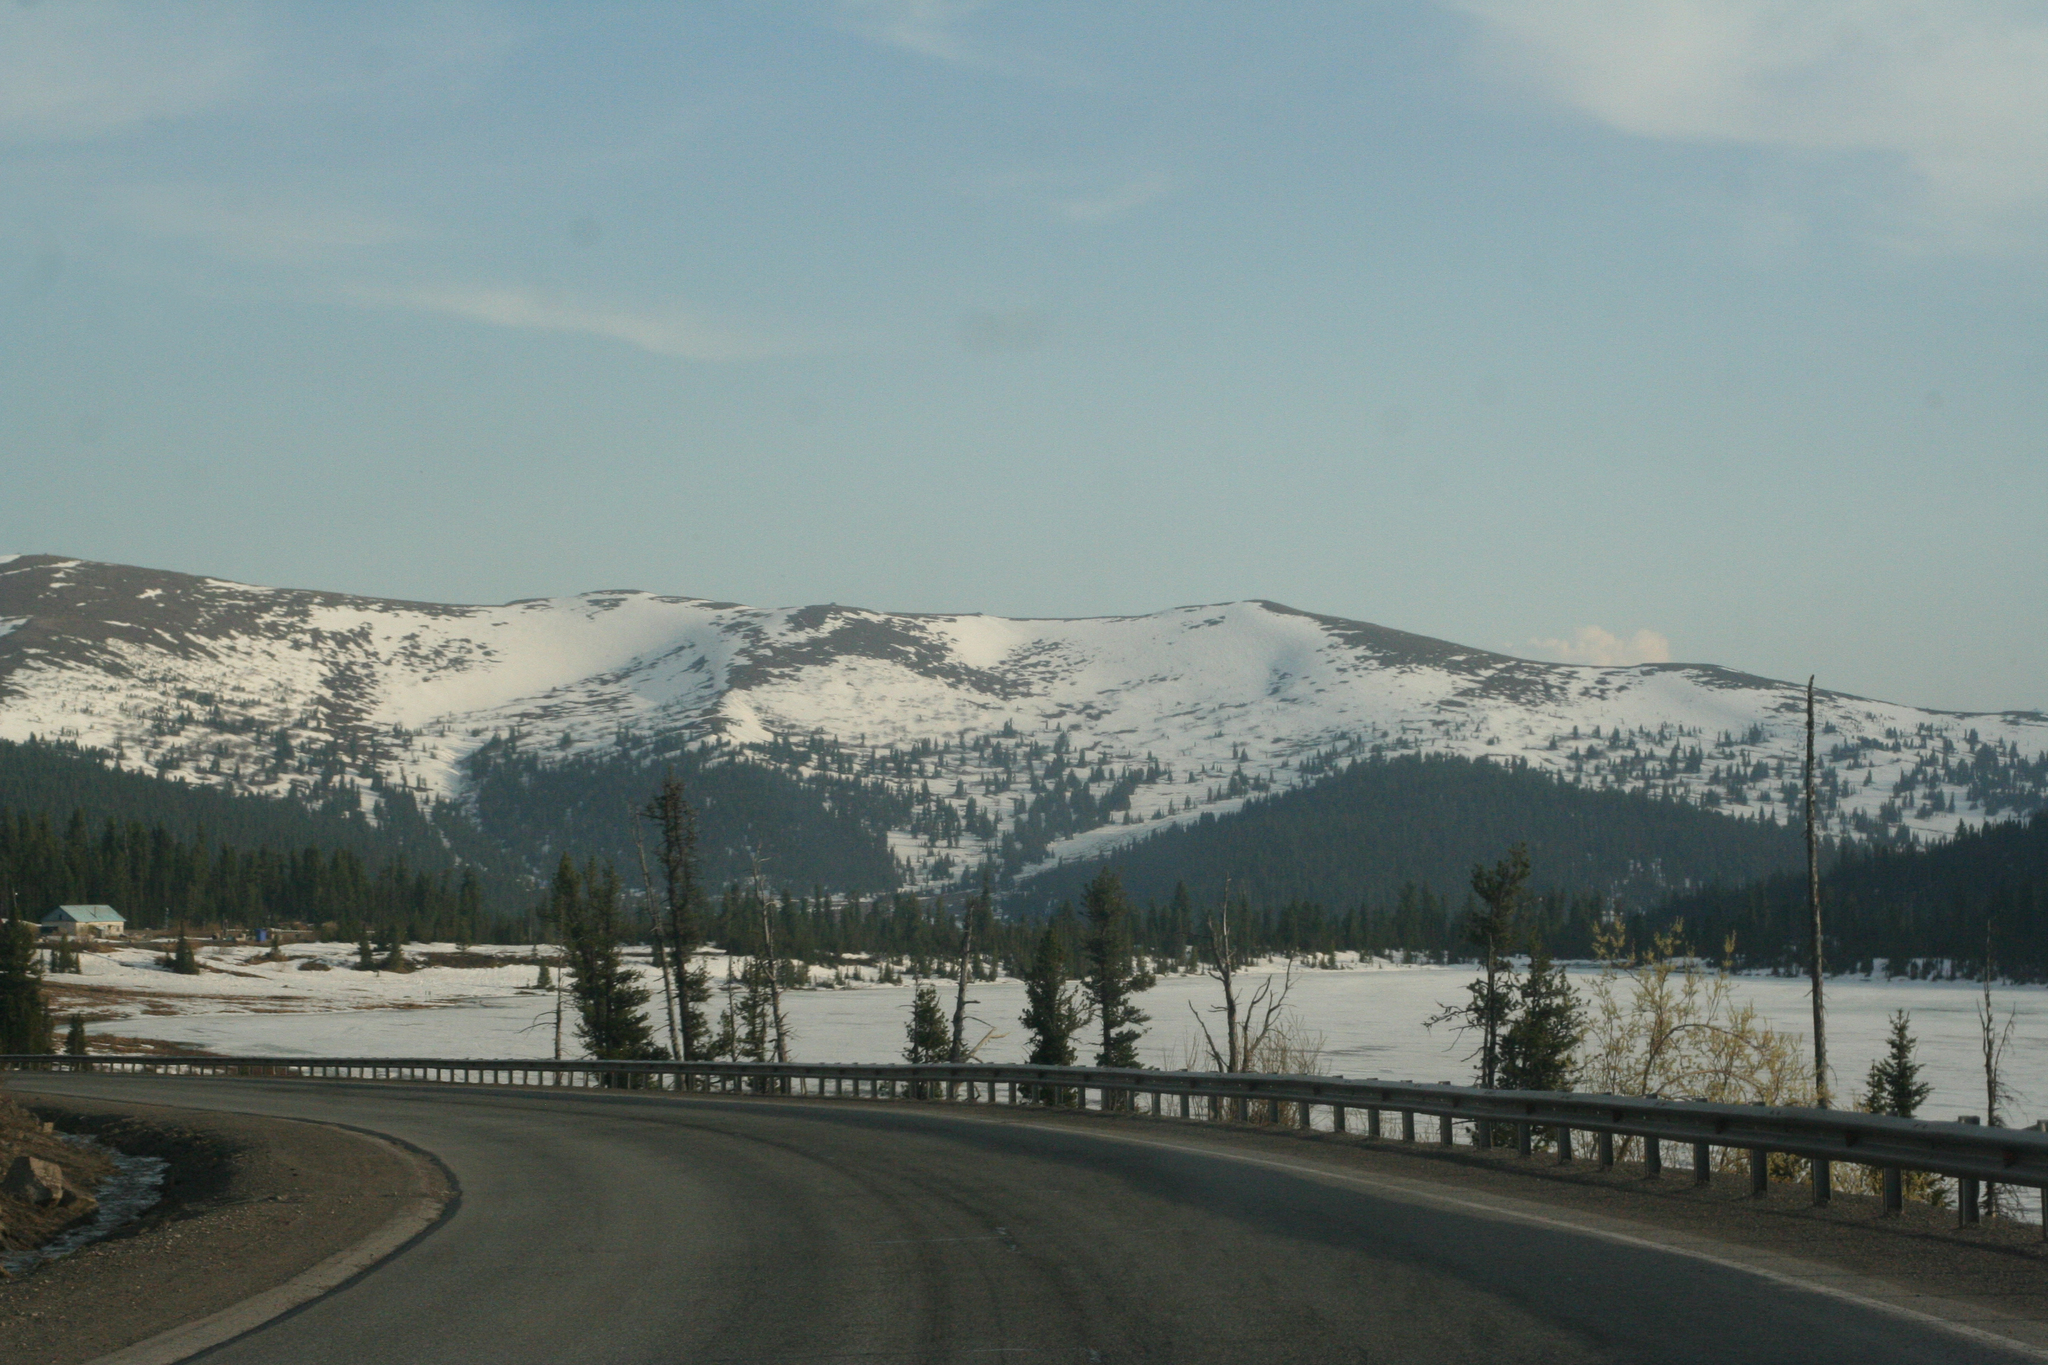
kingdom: Plantae
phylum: Tracheophyta
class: Pinopsida
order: Pinales
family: Pinaceae
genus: Pinus
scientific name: Pinus sibirica
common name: Siberian pine
